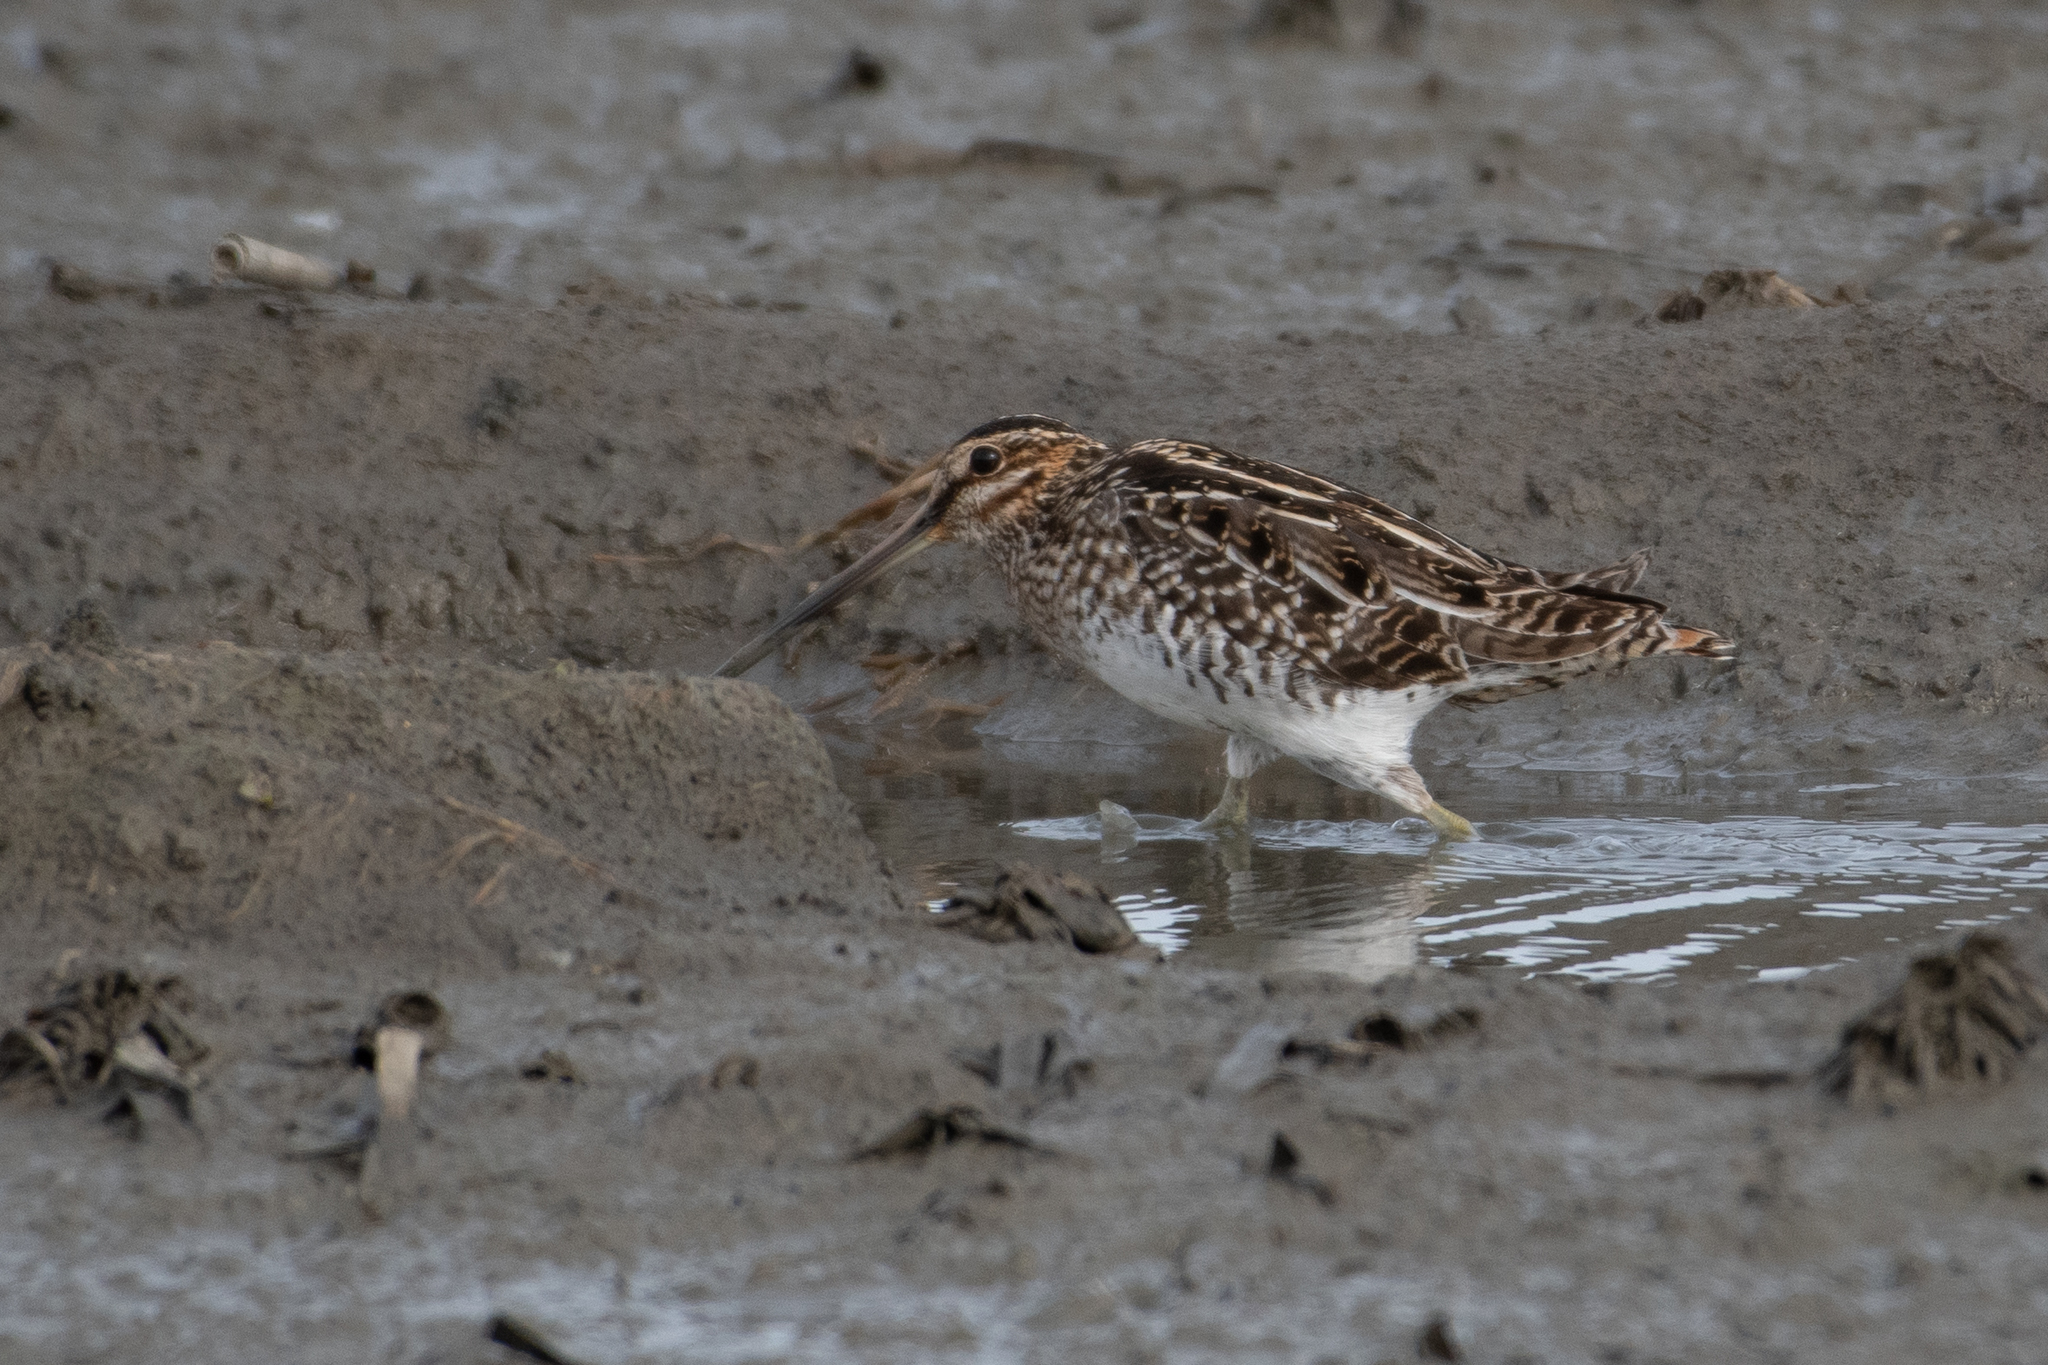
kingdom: Animalia
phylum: Chordata
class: Aves
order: Charadriiformes
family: Scolopacidae
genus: Gallinago
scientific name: Gallinago delicata
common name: Wilson's snipe
